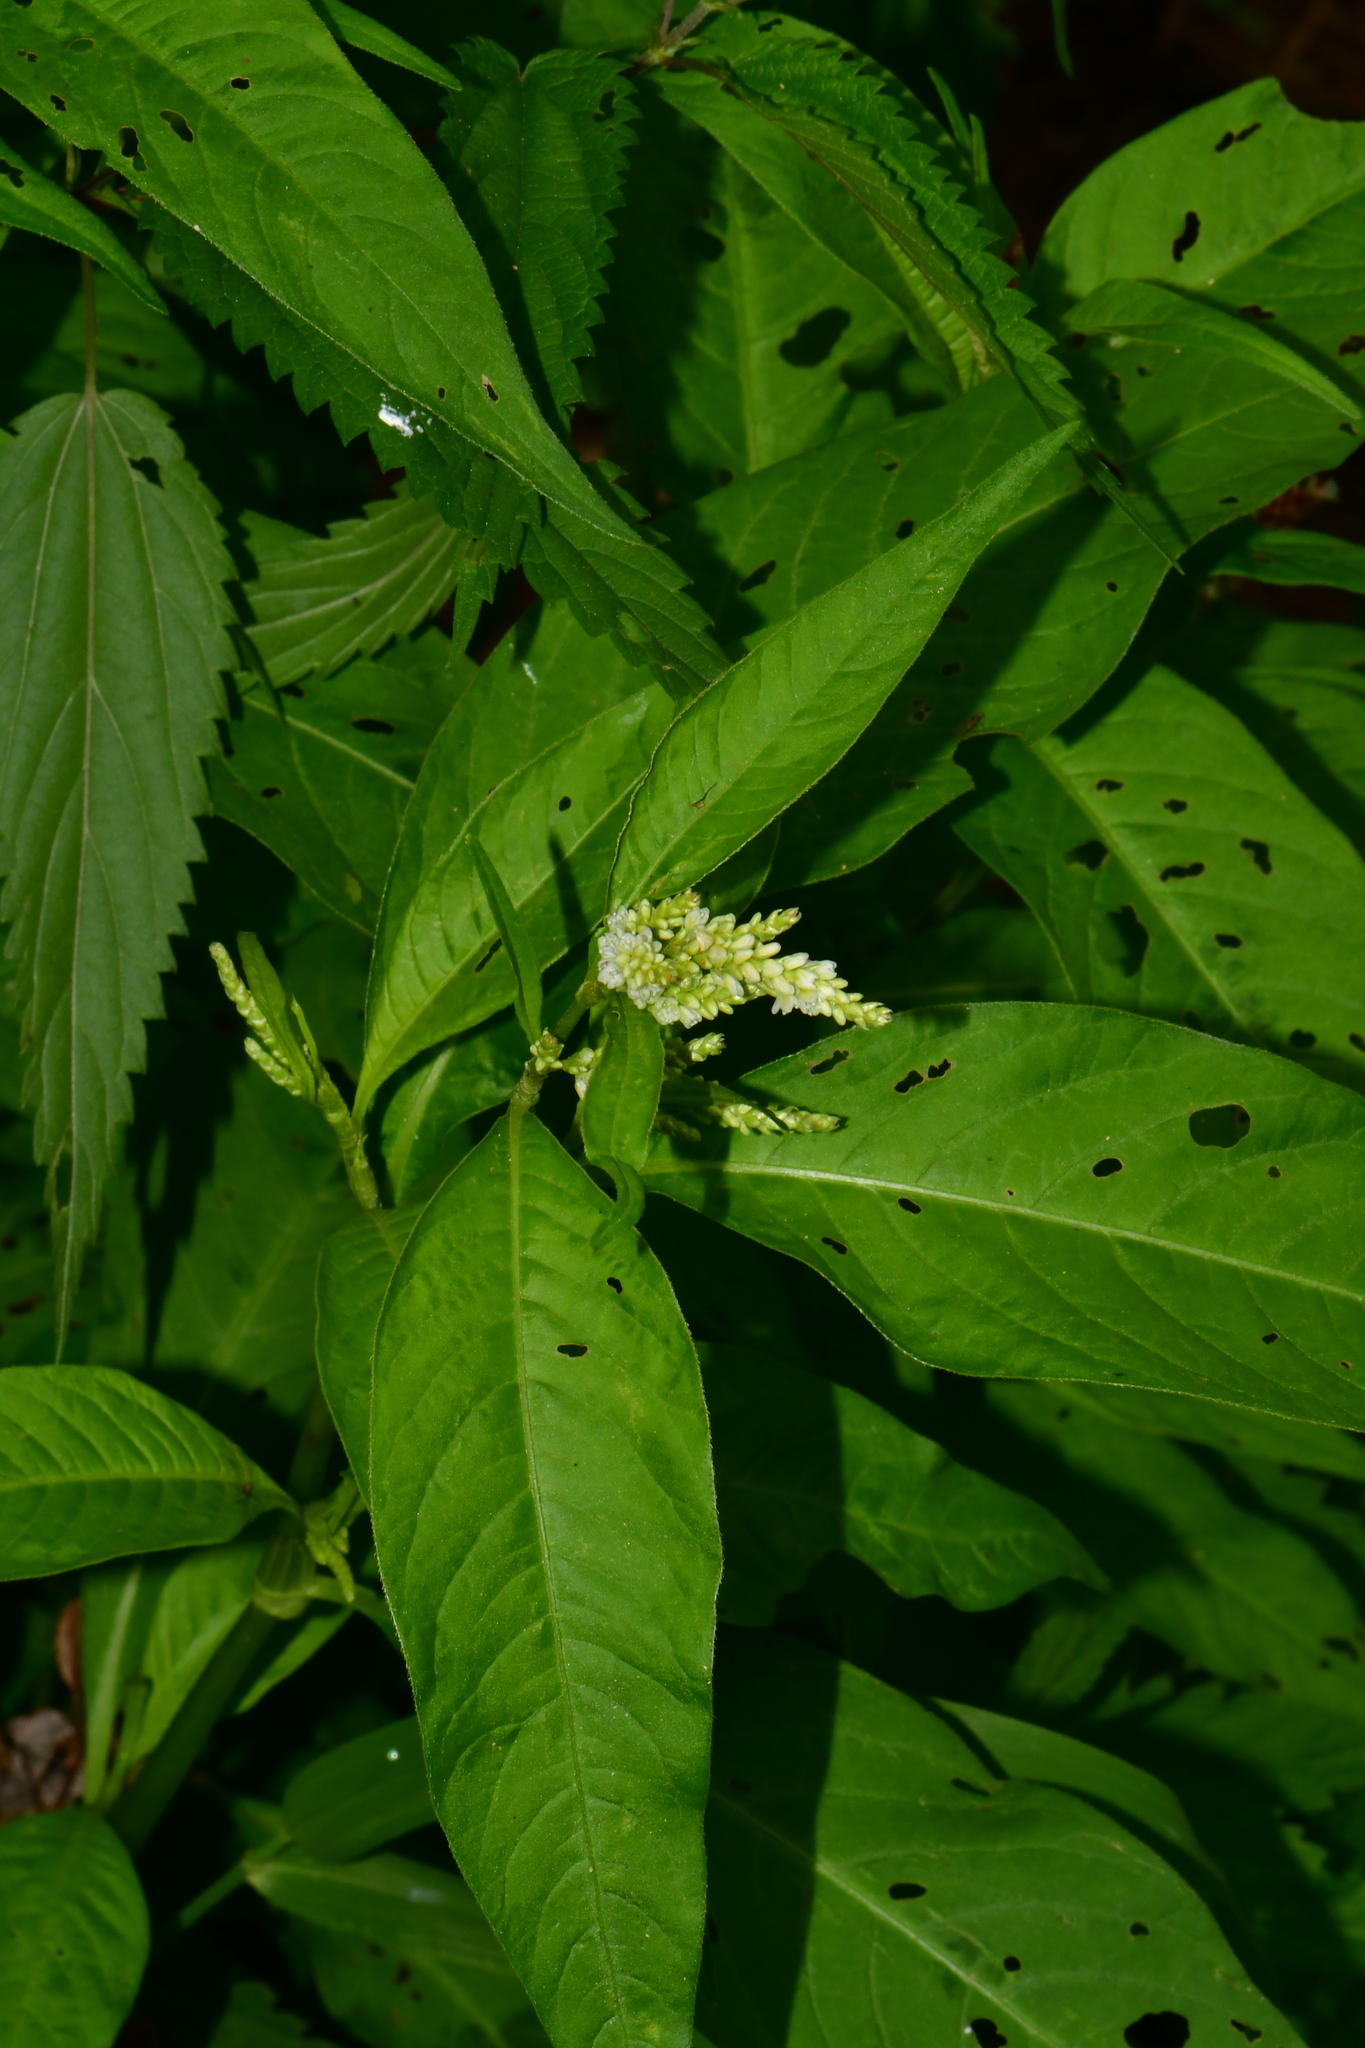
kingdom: Plantae
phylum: Tracheophyta
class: Magnoliopsida
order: Caryophyllales
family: Polygonaceae
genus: Persicaria
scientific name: Persicaria lapathifolia
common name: Curlytop knotweed
